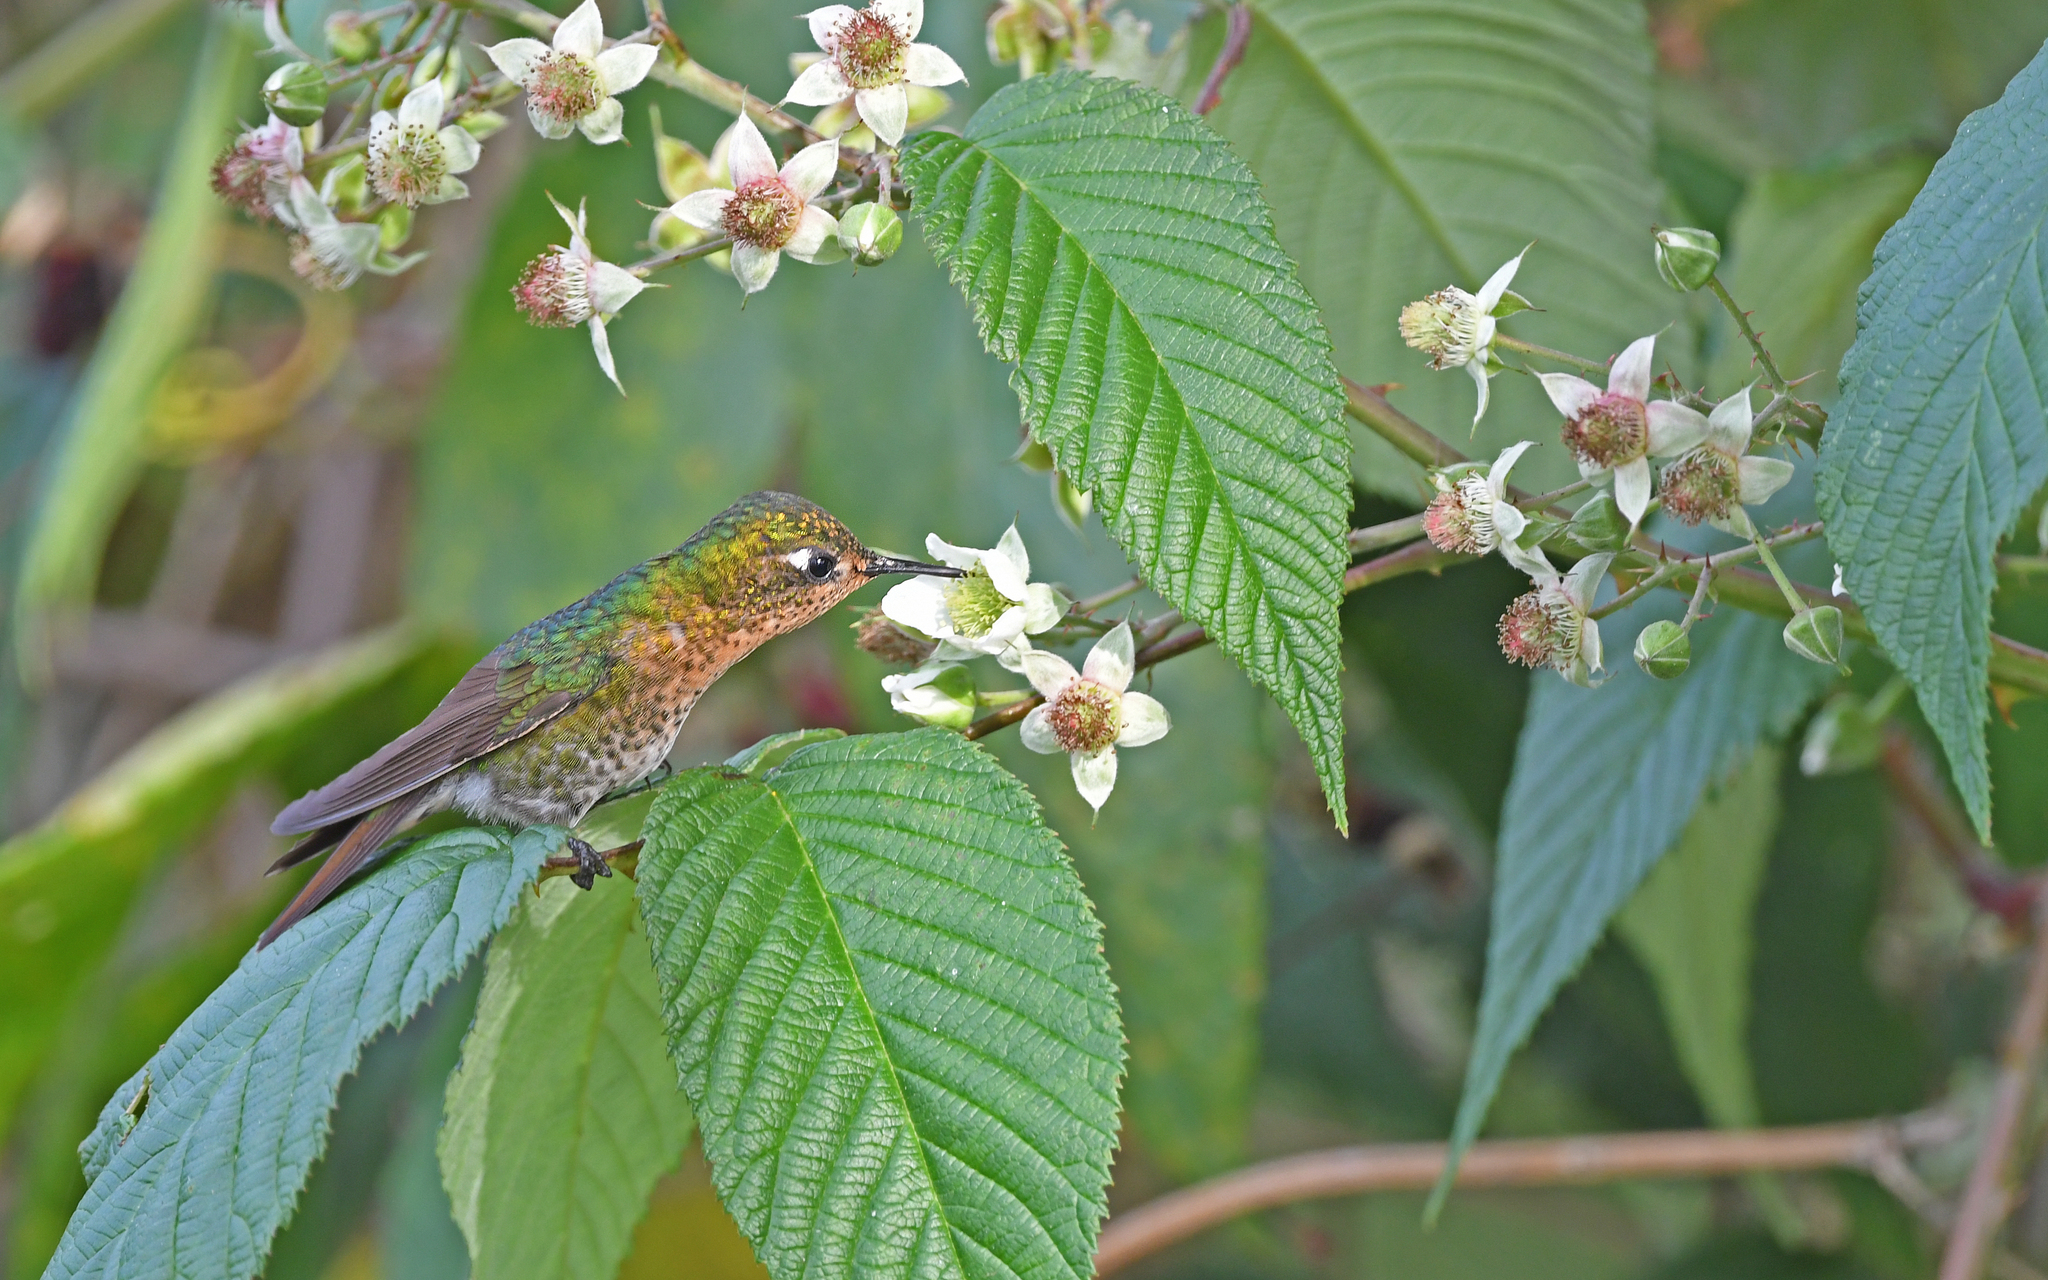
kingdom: Animalia
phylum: Chordata
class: Aves
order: Apodiformes
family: Trochilidae
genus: Metallura
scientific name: Metallura tyrianthina
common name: Tyrian metaltail
